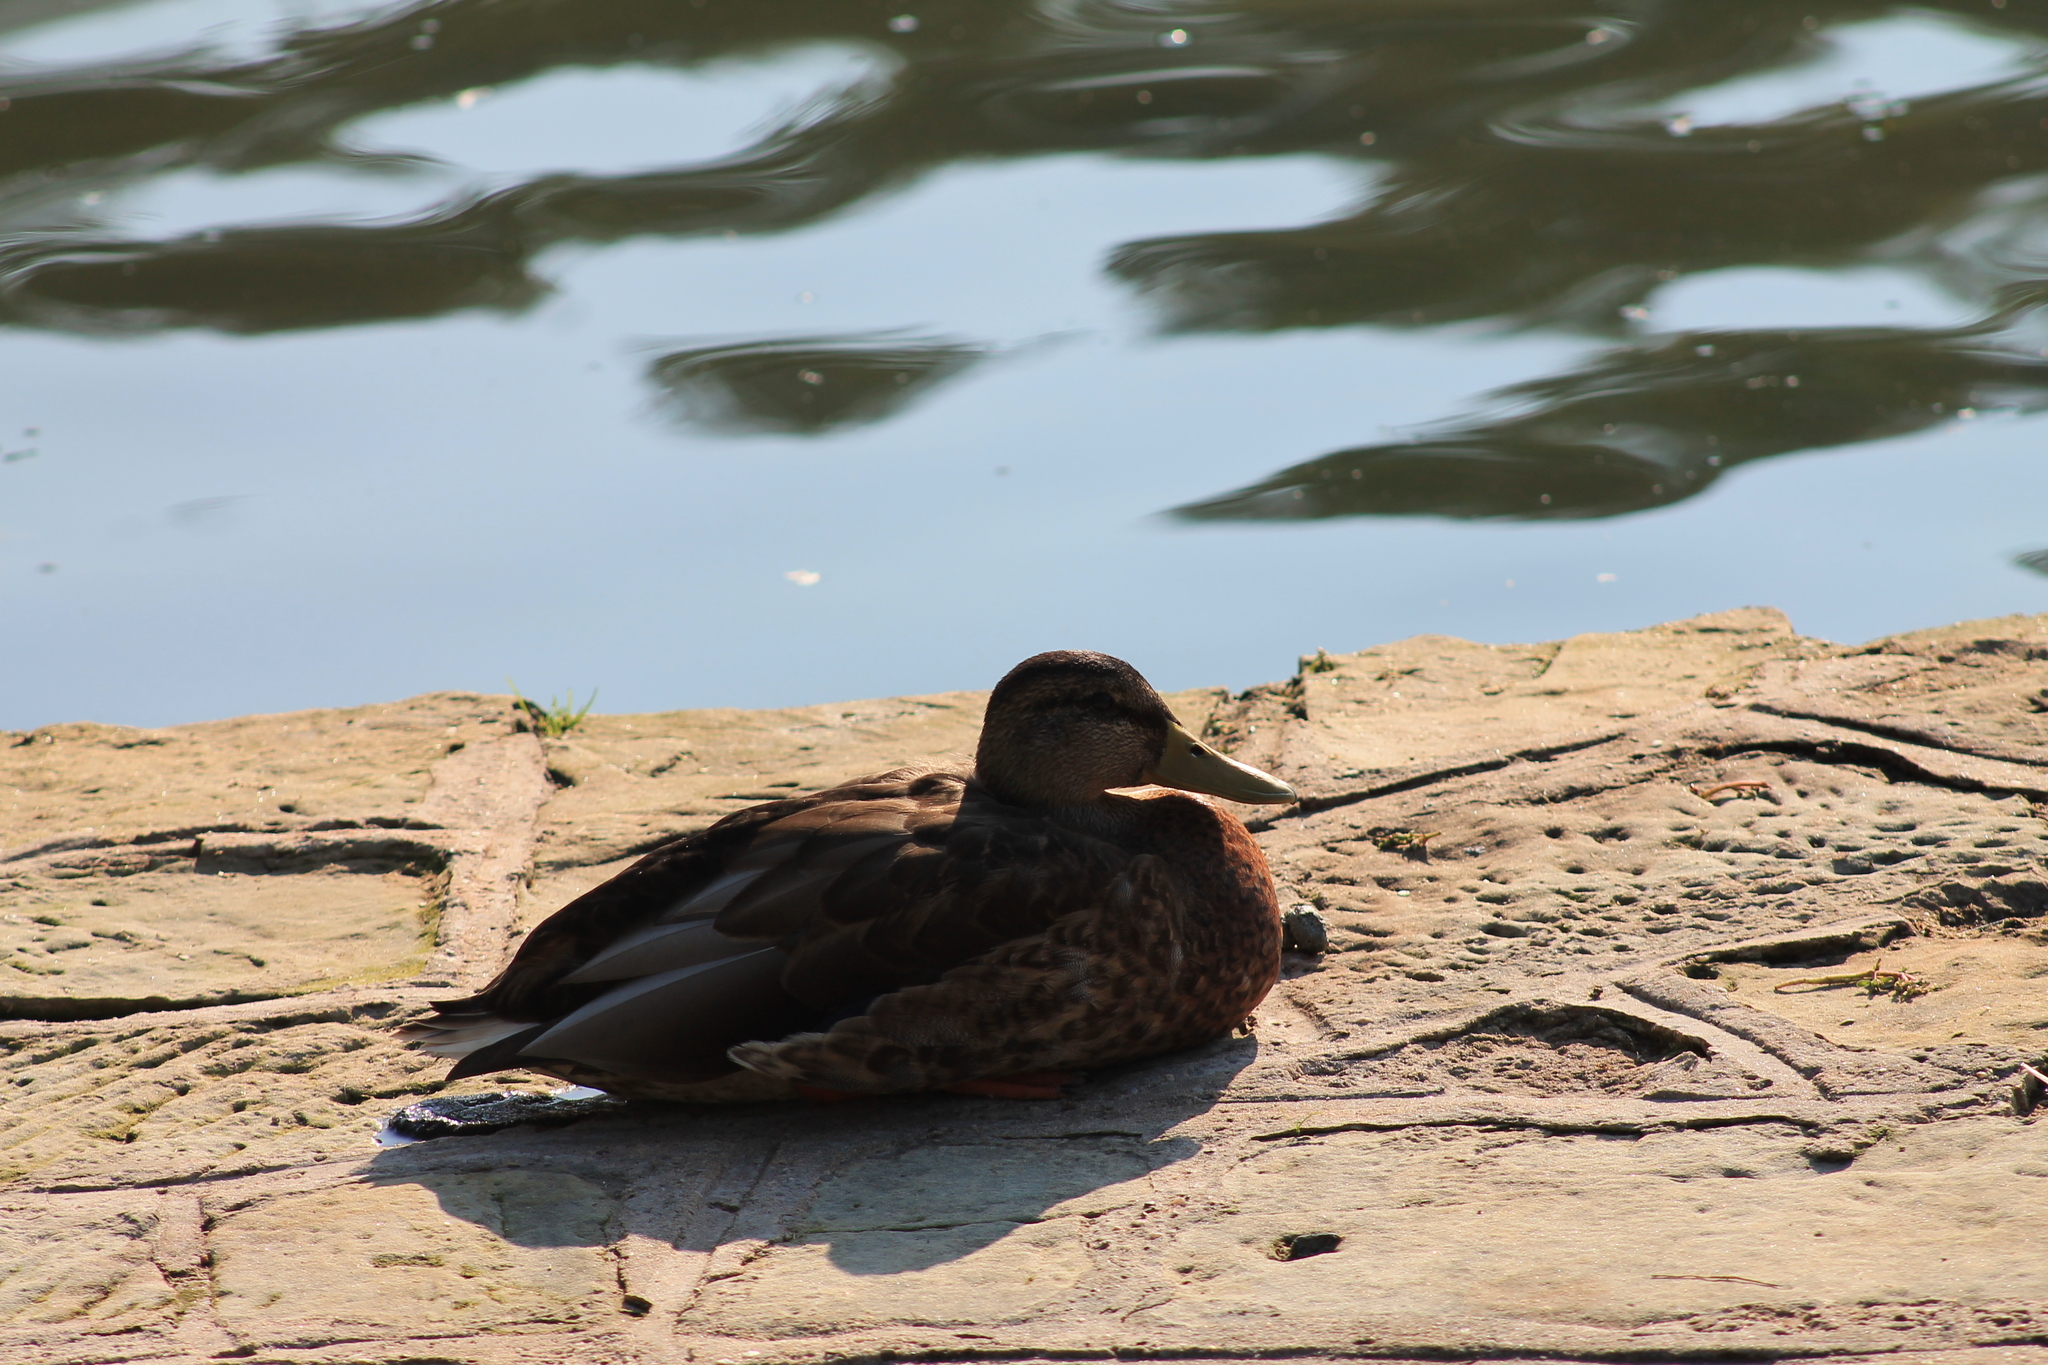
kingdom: Animalia
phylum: Chordata
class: Aves
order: Anseriformes
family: Anatidae
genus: Anas
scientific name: Anas platyrhynchos
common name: Mallard
